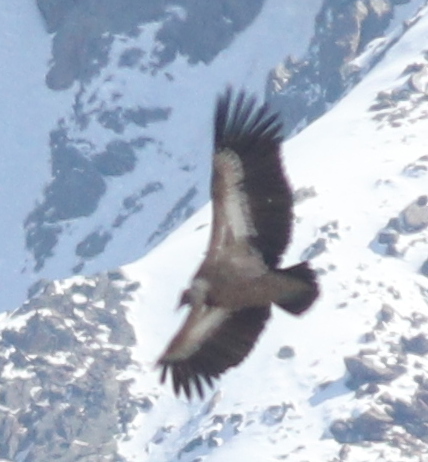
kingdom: Animalia
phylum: Chordata
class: Aves
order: Accipitriformes
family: Accipitridae
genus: Gyps
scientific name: Gyps fulvus
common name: Griffon vulture
